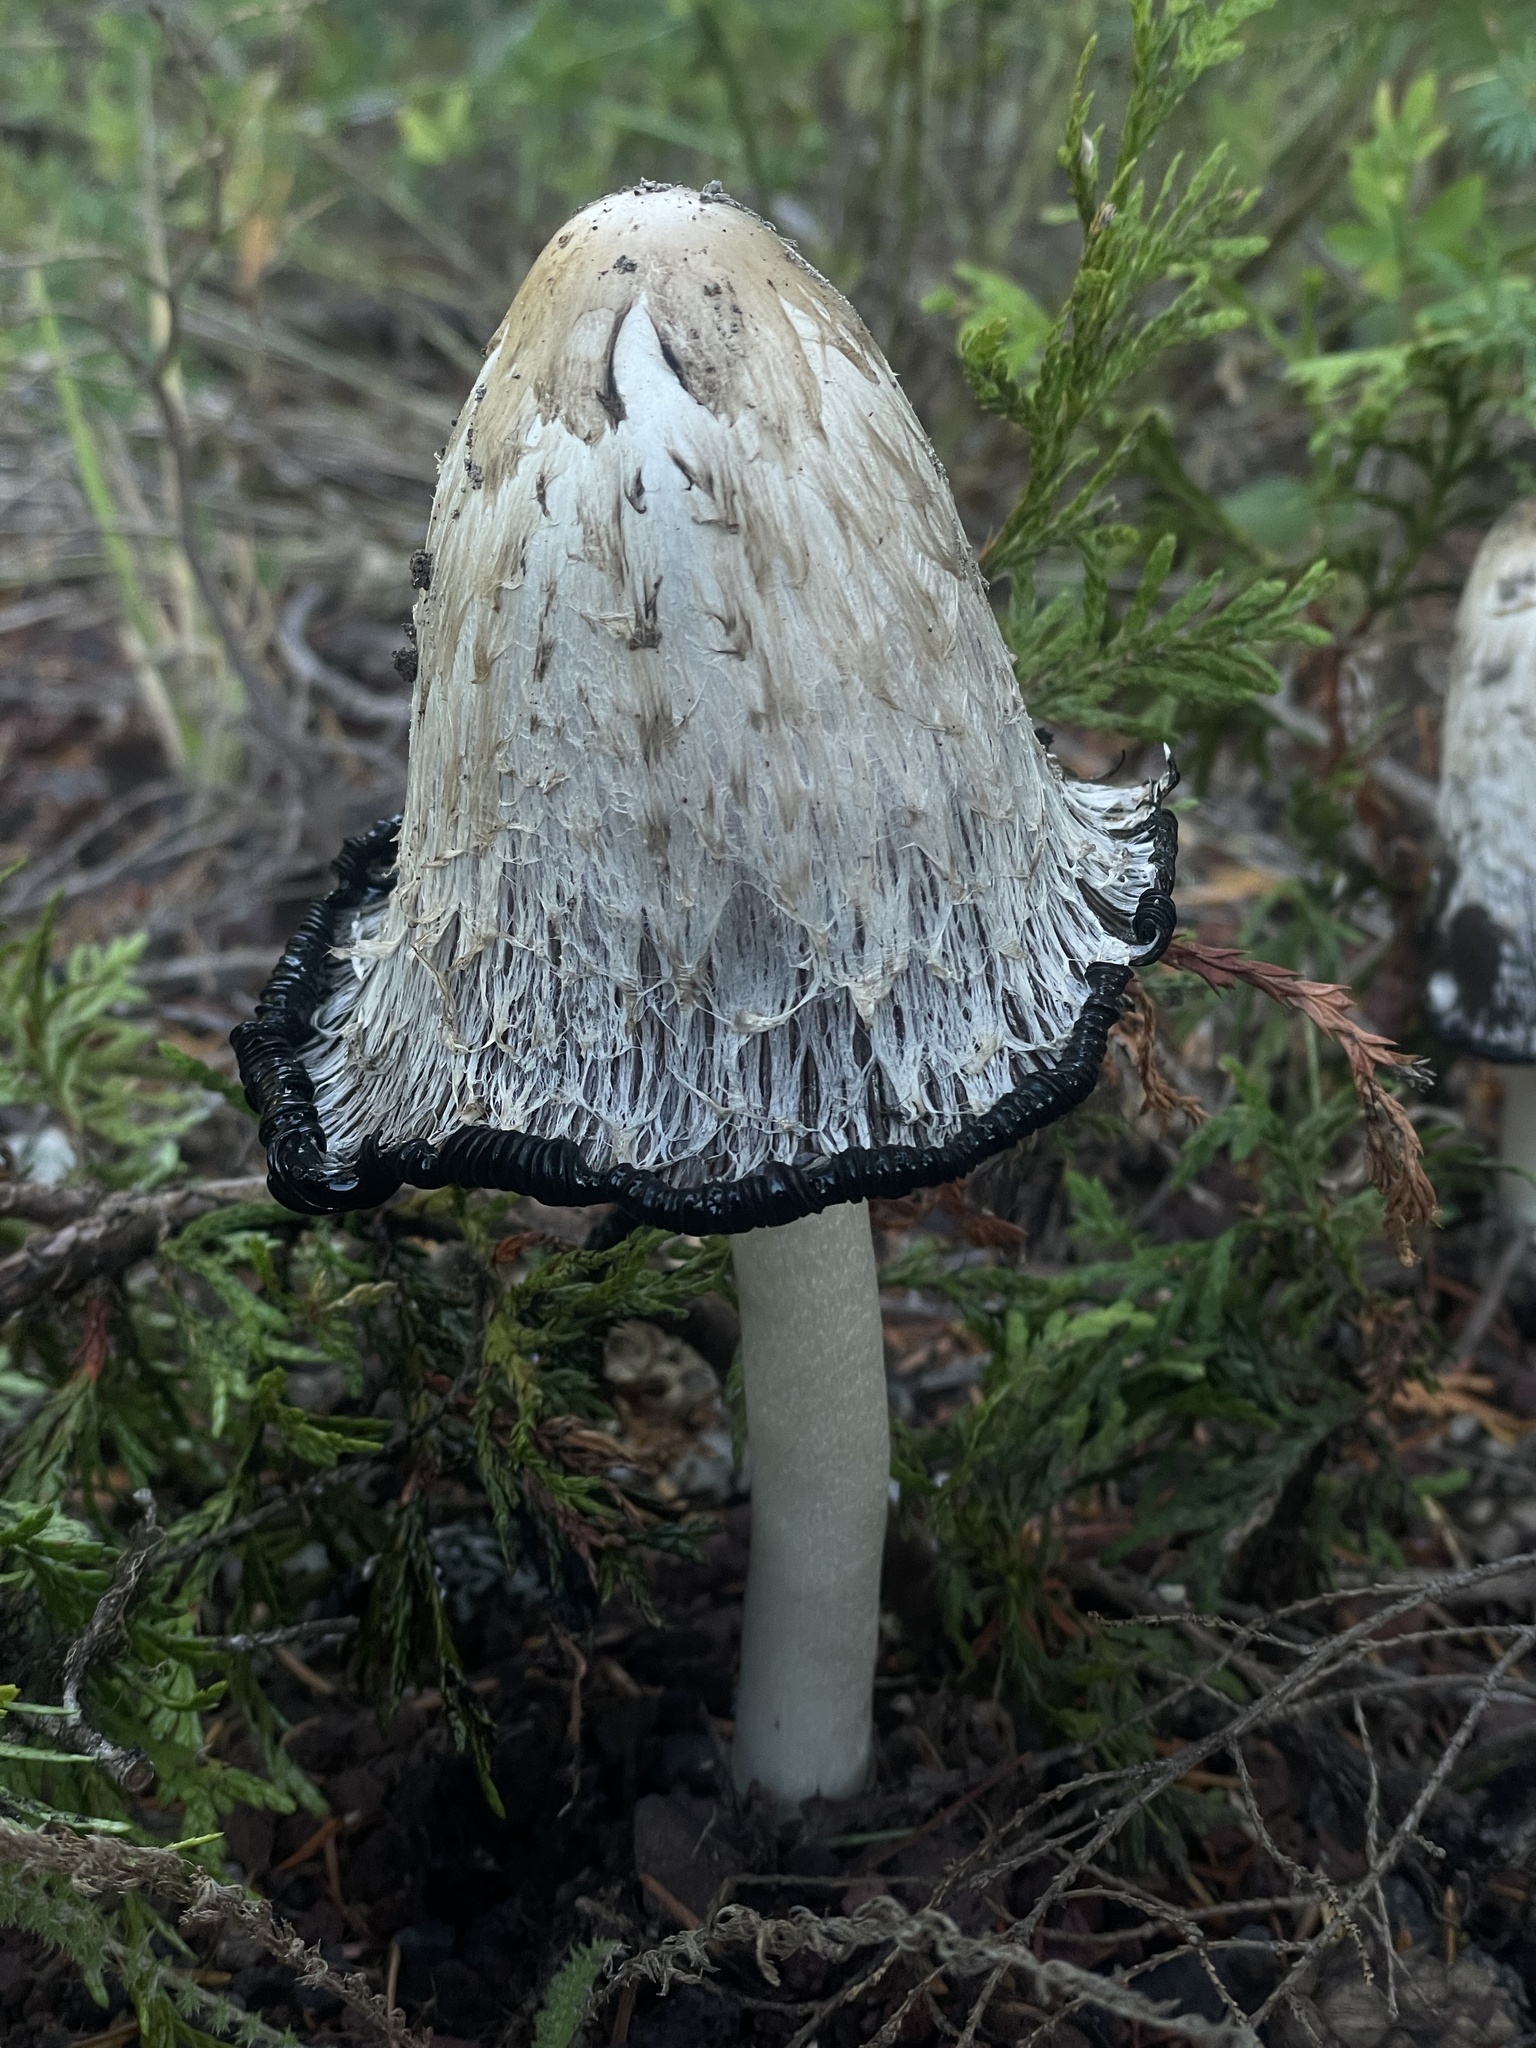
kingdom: Fungi
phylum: Basidiomycota
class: Agaricomycetes
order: Agaricales
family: Agaricaceae
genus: Coprinus
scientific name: Coprinus comatus
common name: Lawyer's wig
